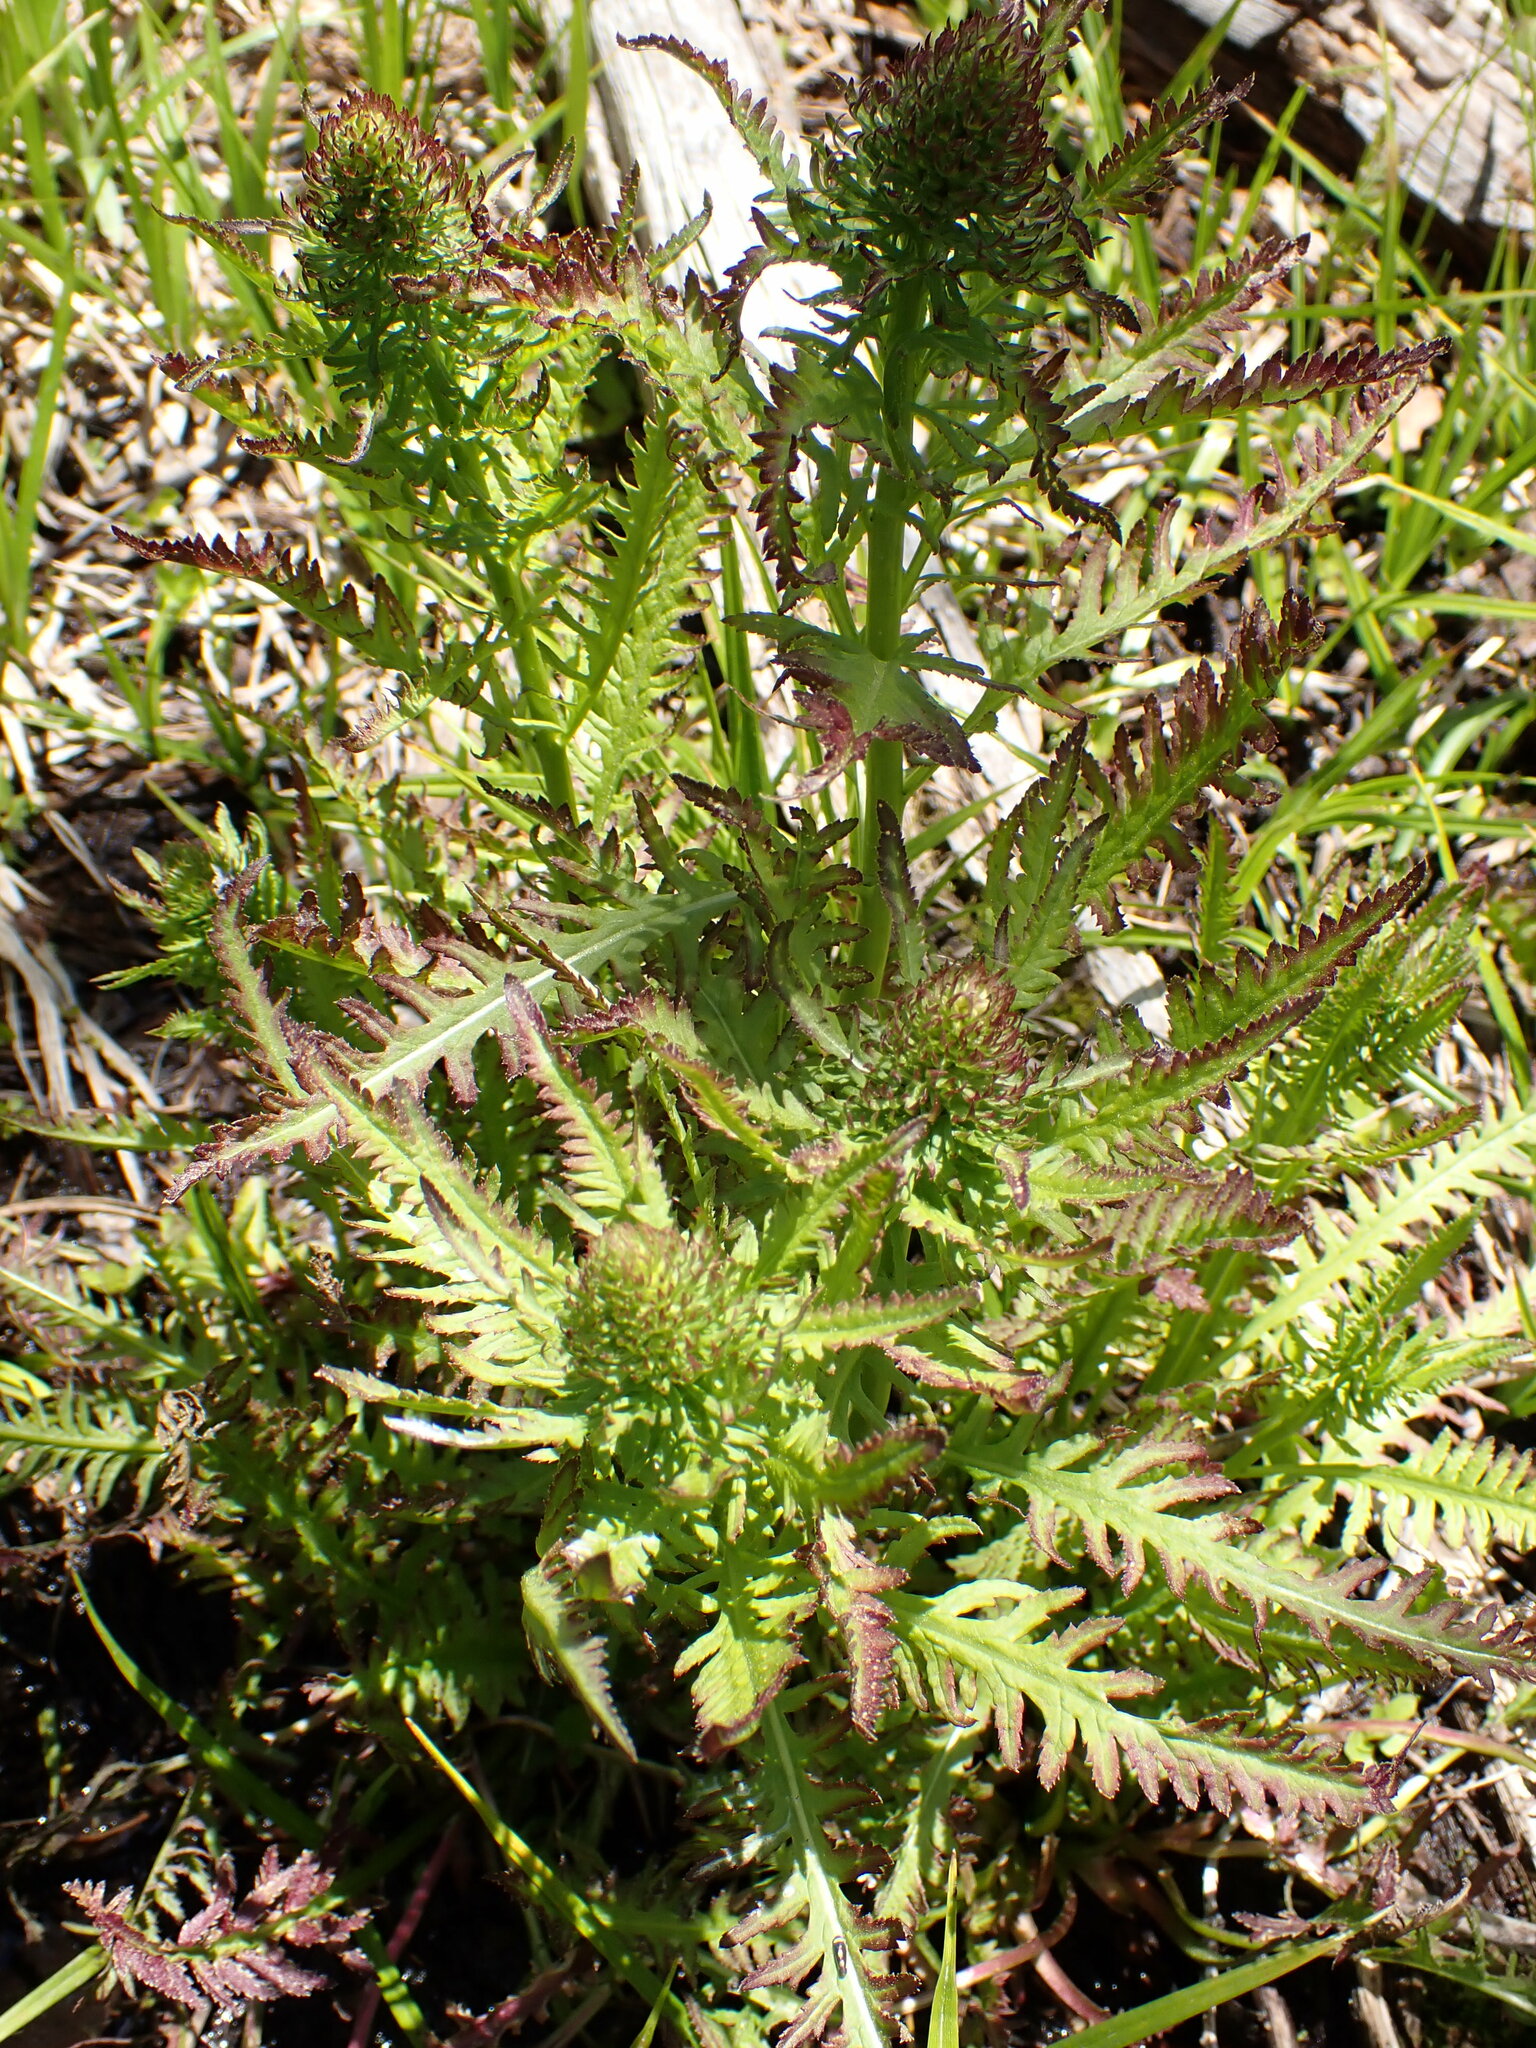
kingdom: Plantae
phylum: Tracheophyta
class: Magnoliopsida
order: Lamiales
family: Orobanchaceae
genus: Pedicularis
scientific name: Pedicularis groenlandica
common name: Elephant's-head
